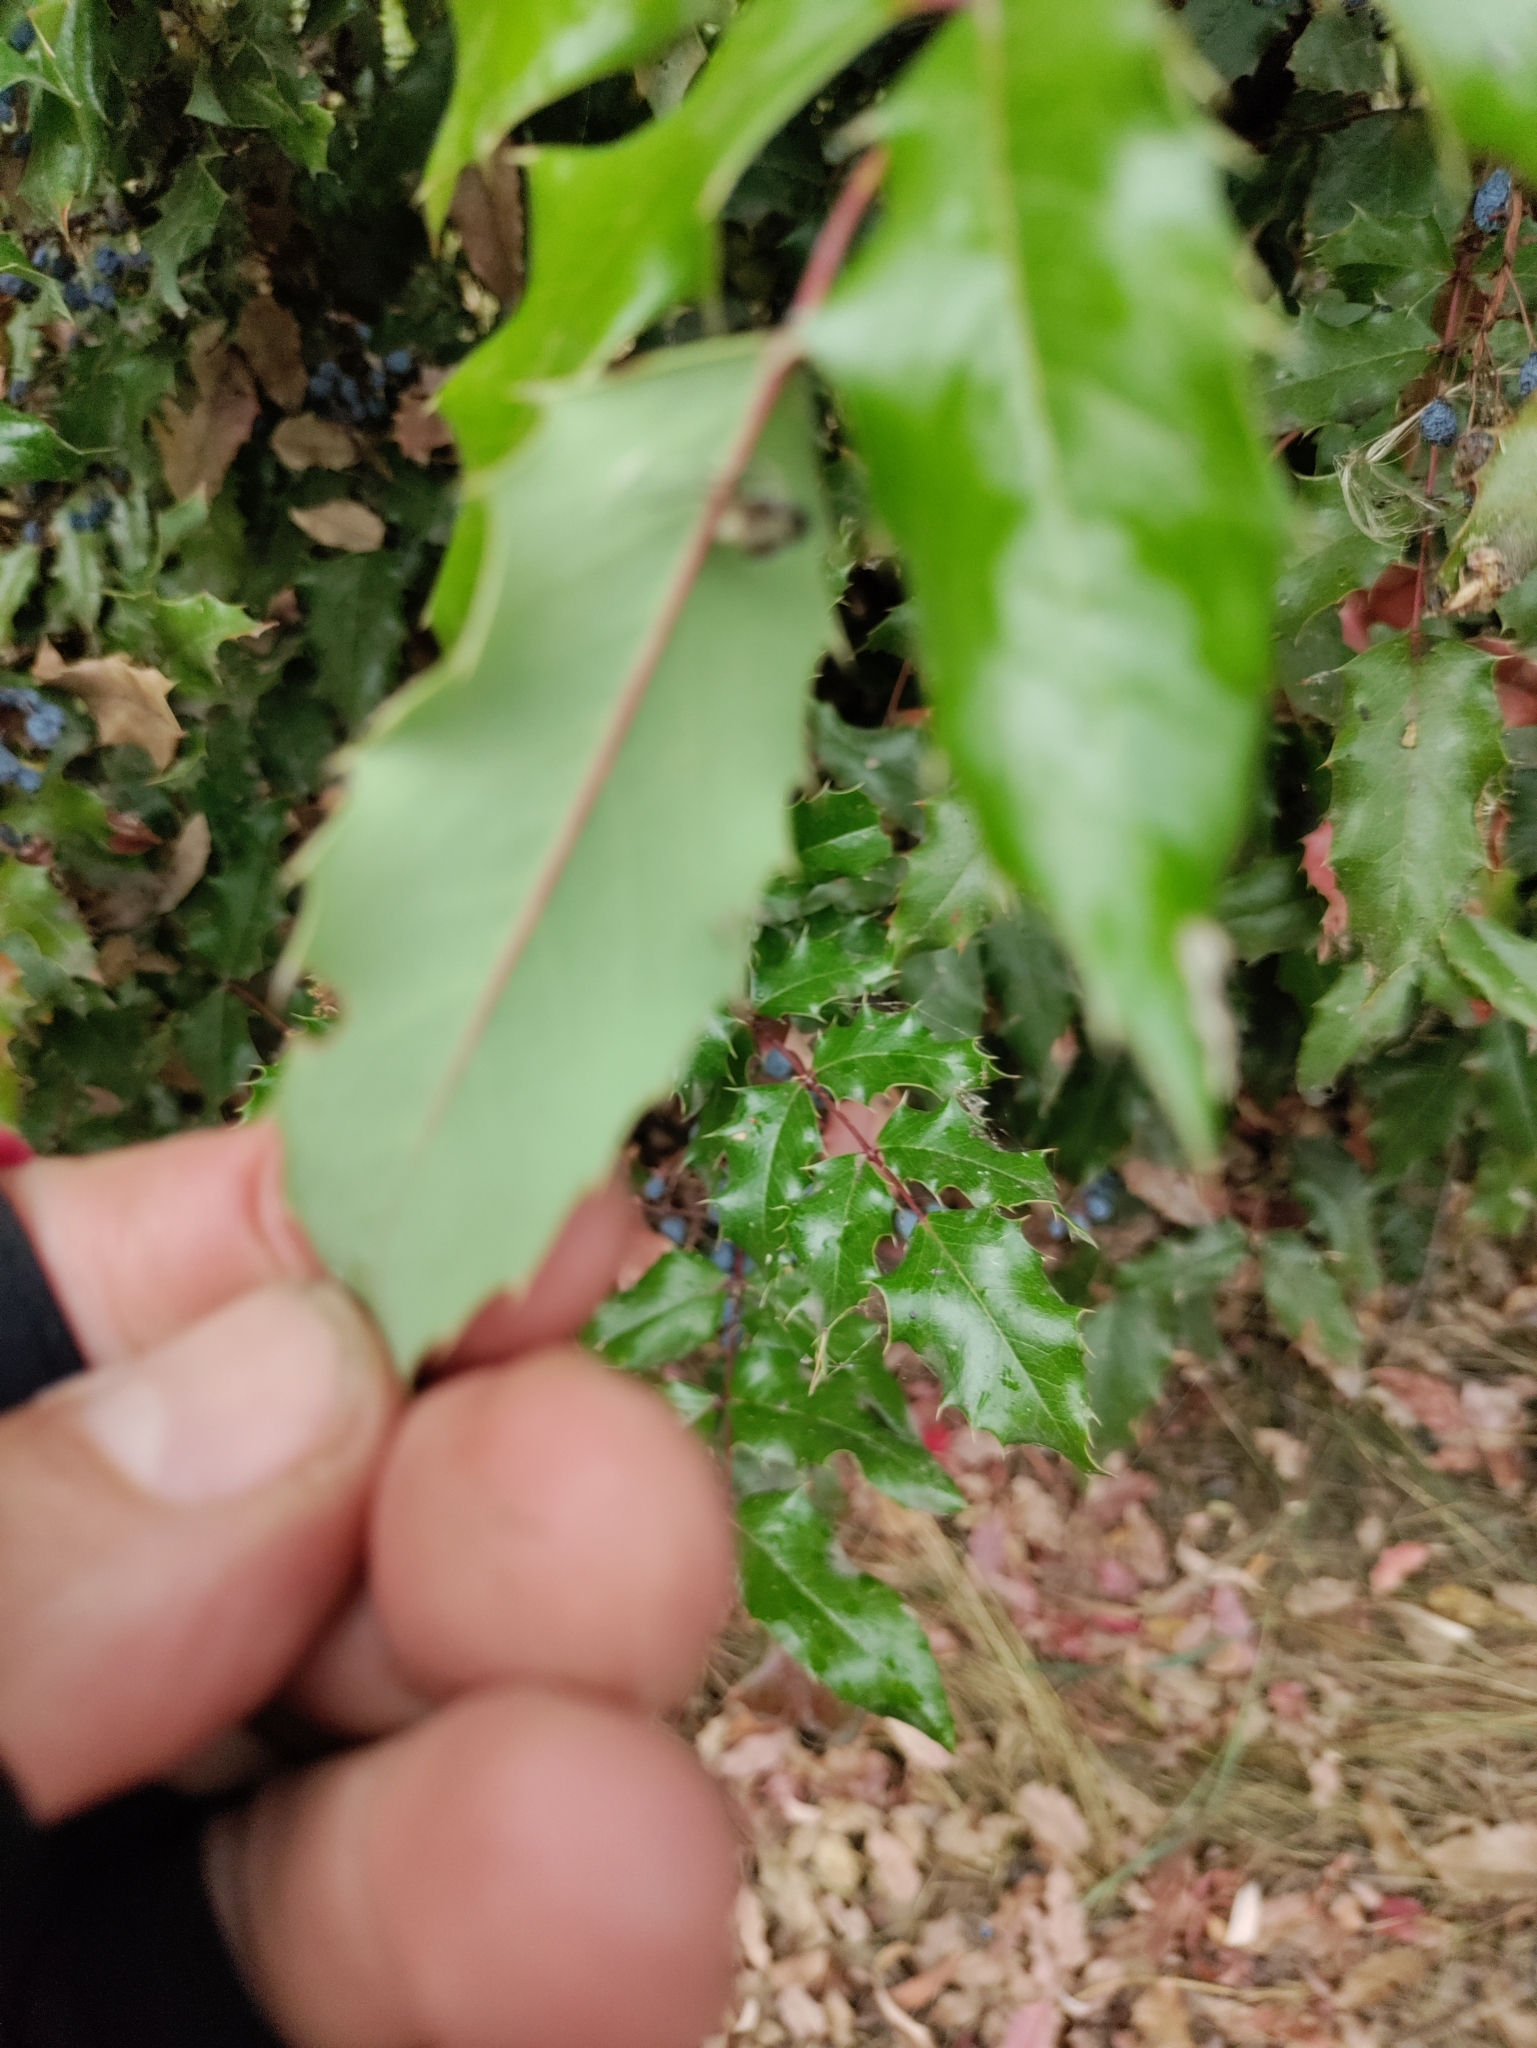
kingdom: Plantae
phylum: Tracheophyta
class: Magnoliopsida
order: Ranunculales
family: Berberidaceae
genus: Mahonia
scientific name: Mahonia aquifolium
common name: Oregon-grape
